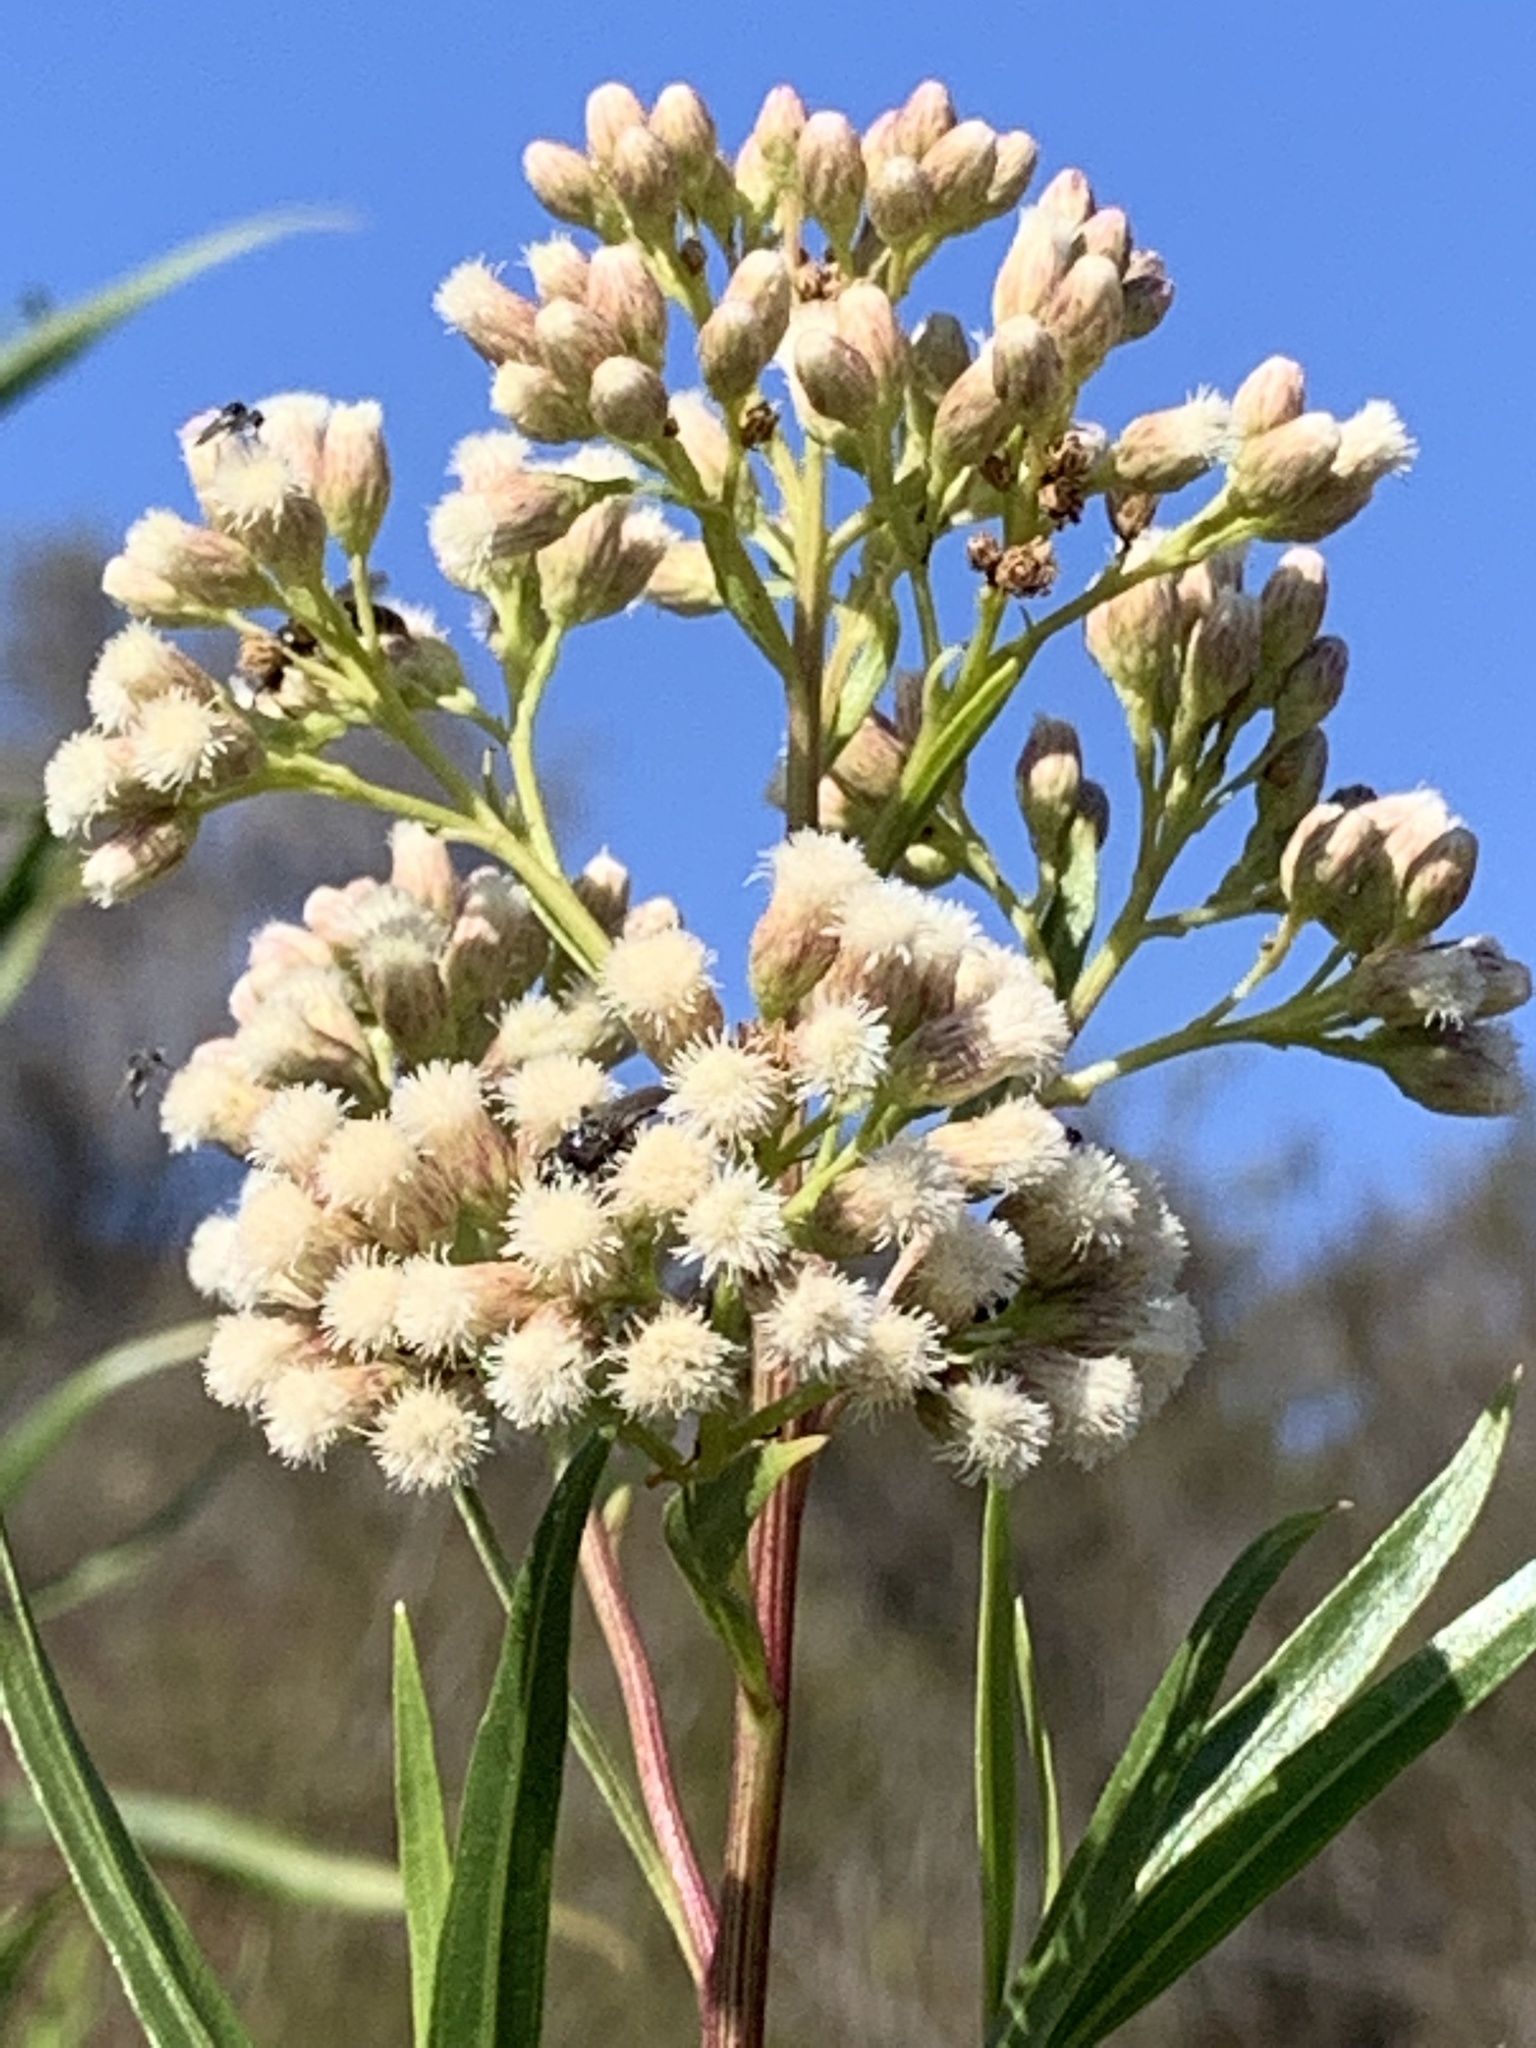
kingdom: Plantae
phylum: Tracheophyta
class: Magnoliopsida
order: Asterales
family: Asteraceae
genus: Baccharis
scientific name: Baccharis salicifolia
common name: Sticky baccharis
